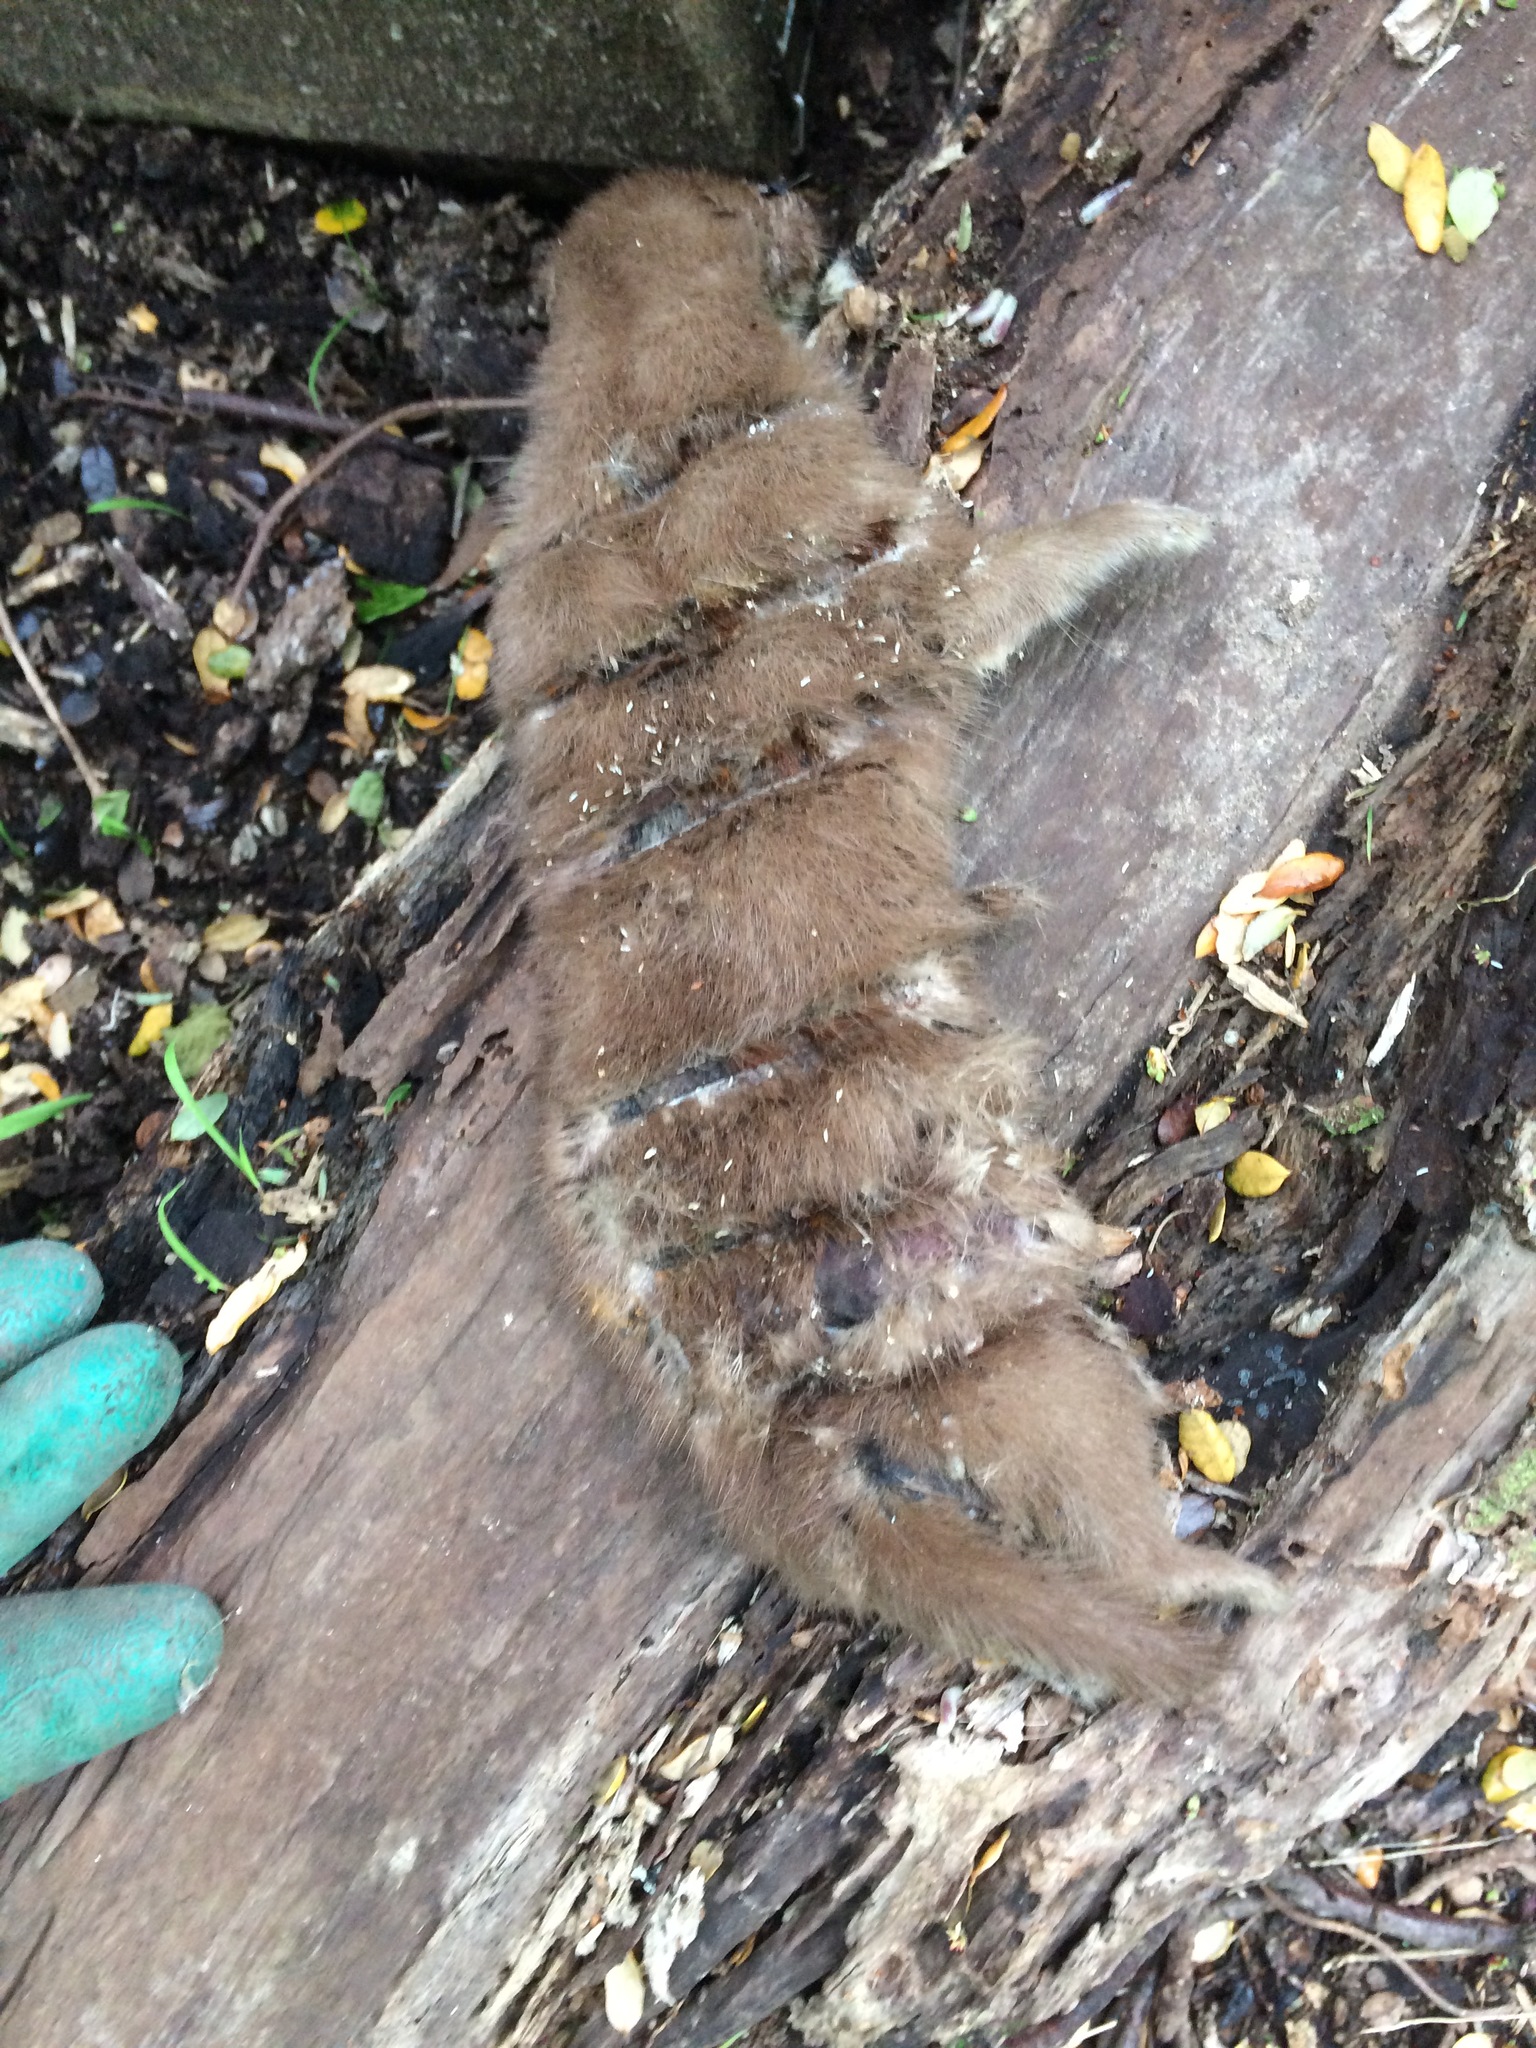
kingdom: Animalia
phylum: Chordata
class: Mammalia
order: Carnivora
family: Mustelidae
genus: Mustela
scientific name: Mustela nivalis
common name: Least weasel
